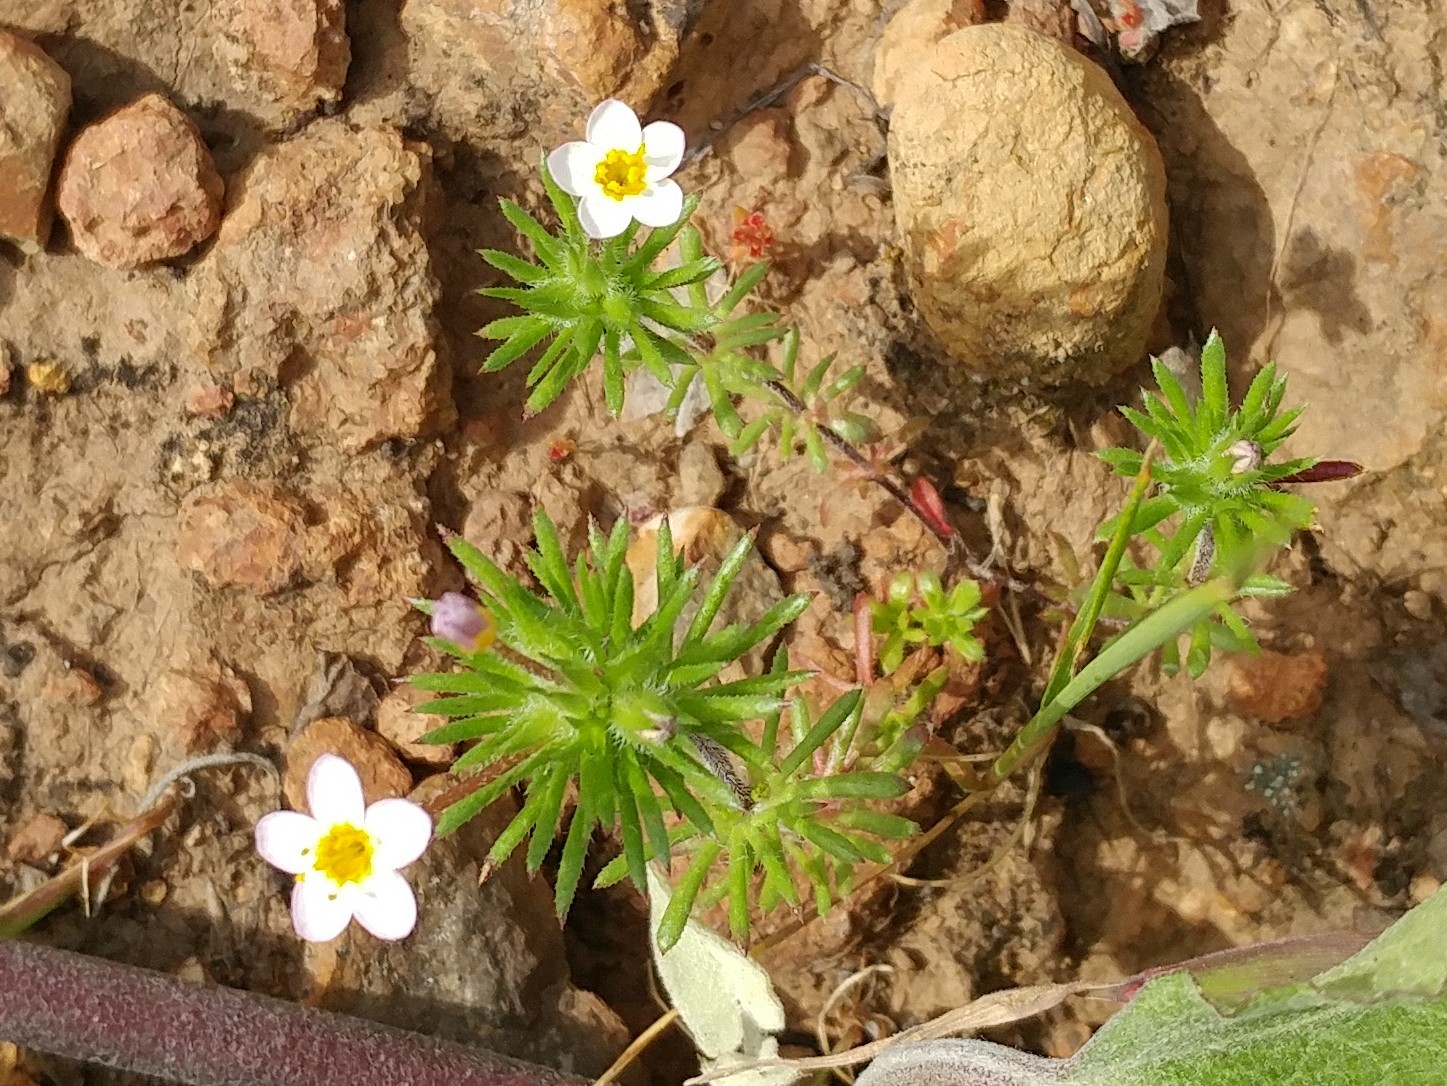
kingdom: Plantae
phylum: Tracheophyta
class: Magnoliopsida
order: Ericales
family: Polemoniaceae
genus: Leptosiphon
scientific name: Leptosiphon bicolor
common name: True babystars
